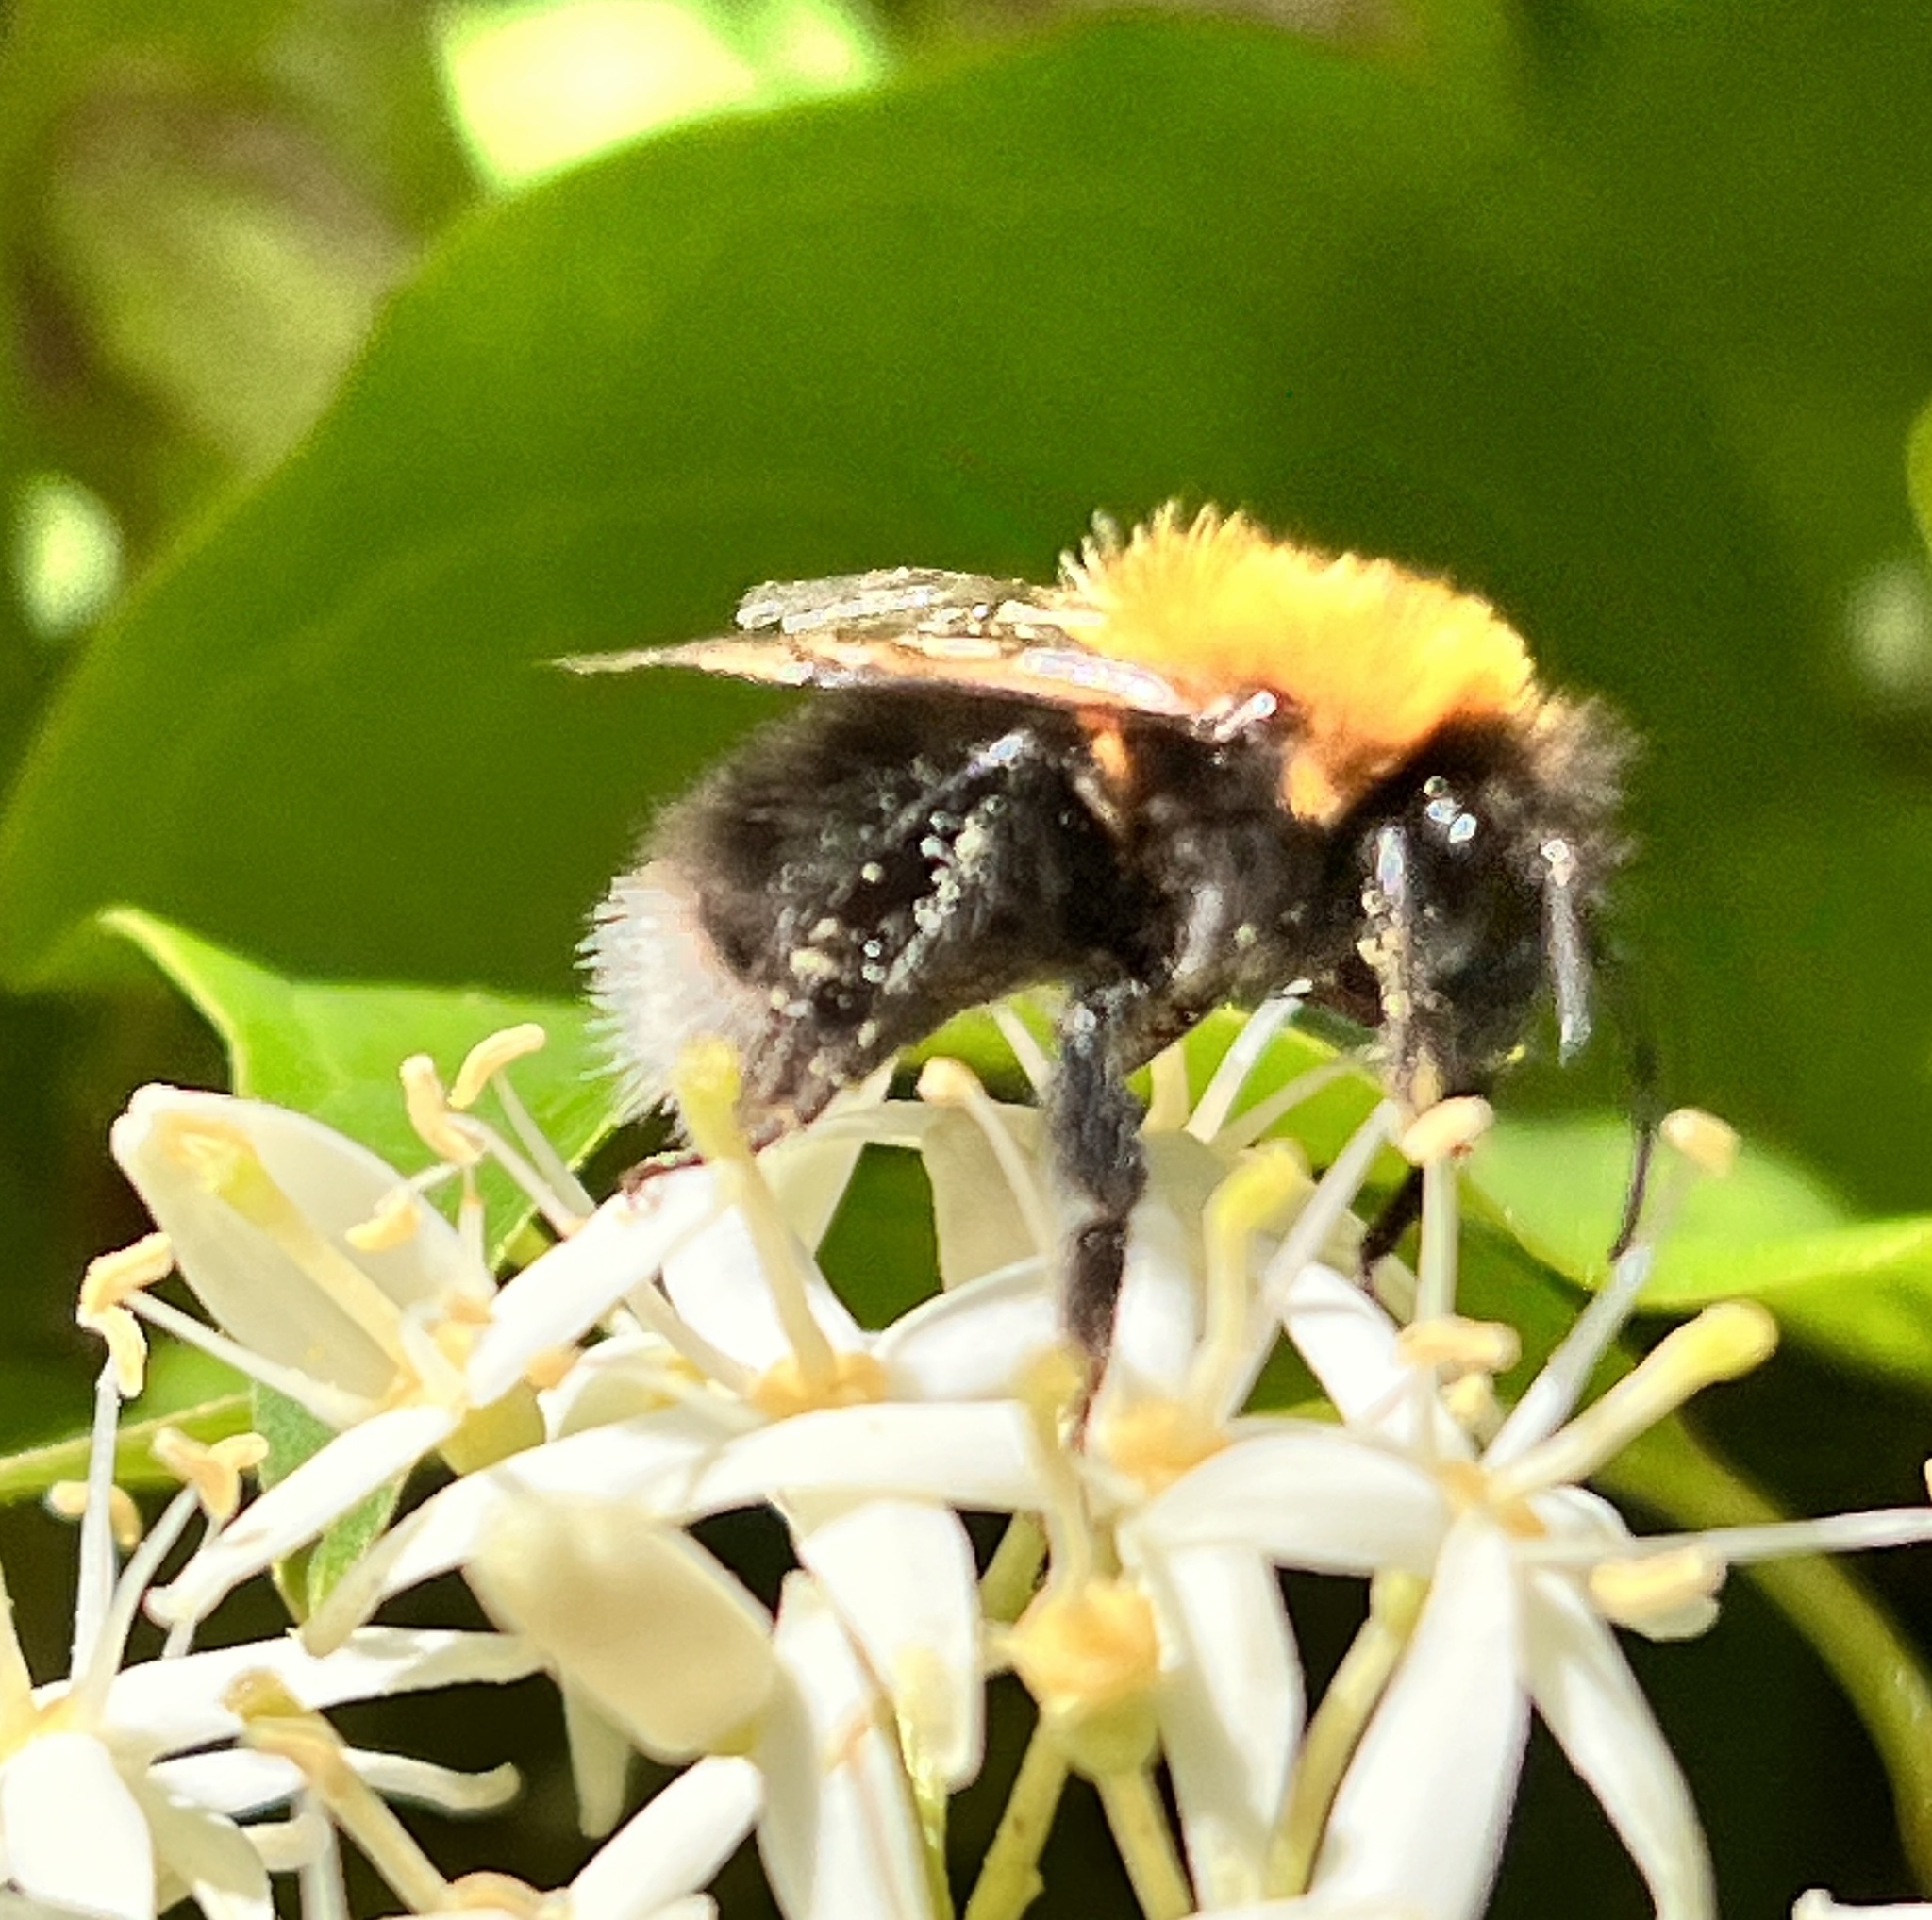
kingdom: Animalia
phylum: Arthropoda
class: Insecta
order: Hymenoptera
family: Apidae
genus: Bombus
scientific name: Bombus hypnorum
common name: New garden bumblebee
